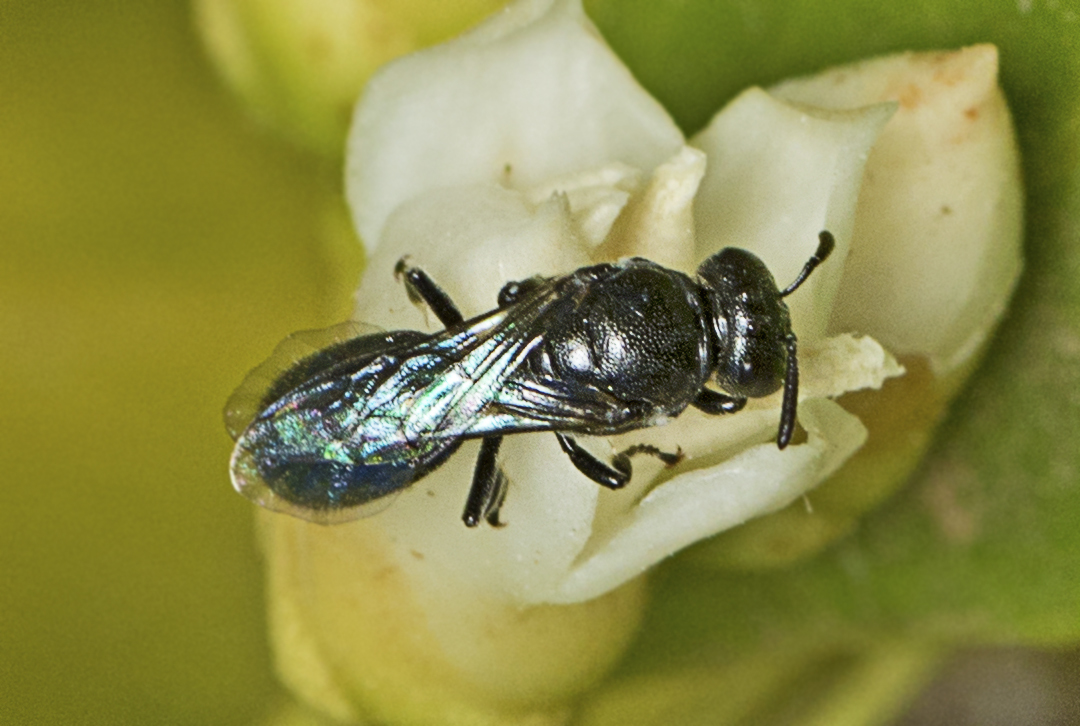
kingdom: Animalia
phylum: Arthropoda
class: Insecta
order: Hymenoptera
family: Colletidae
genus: Hylaeus
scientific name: Hylaeus cyaneomicans
